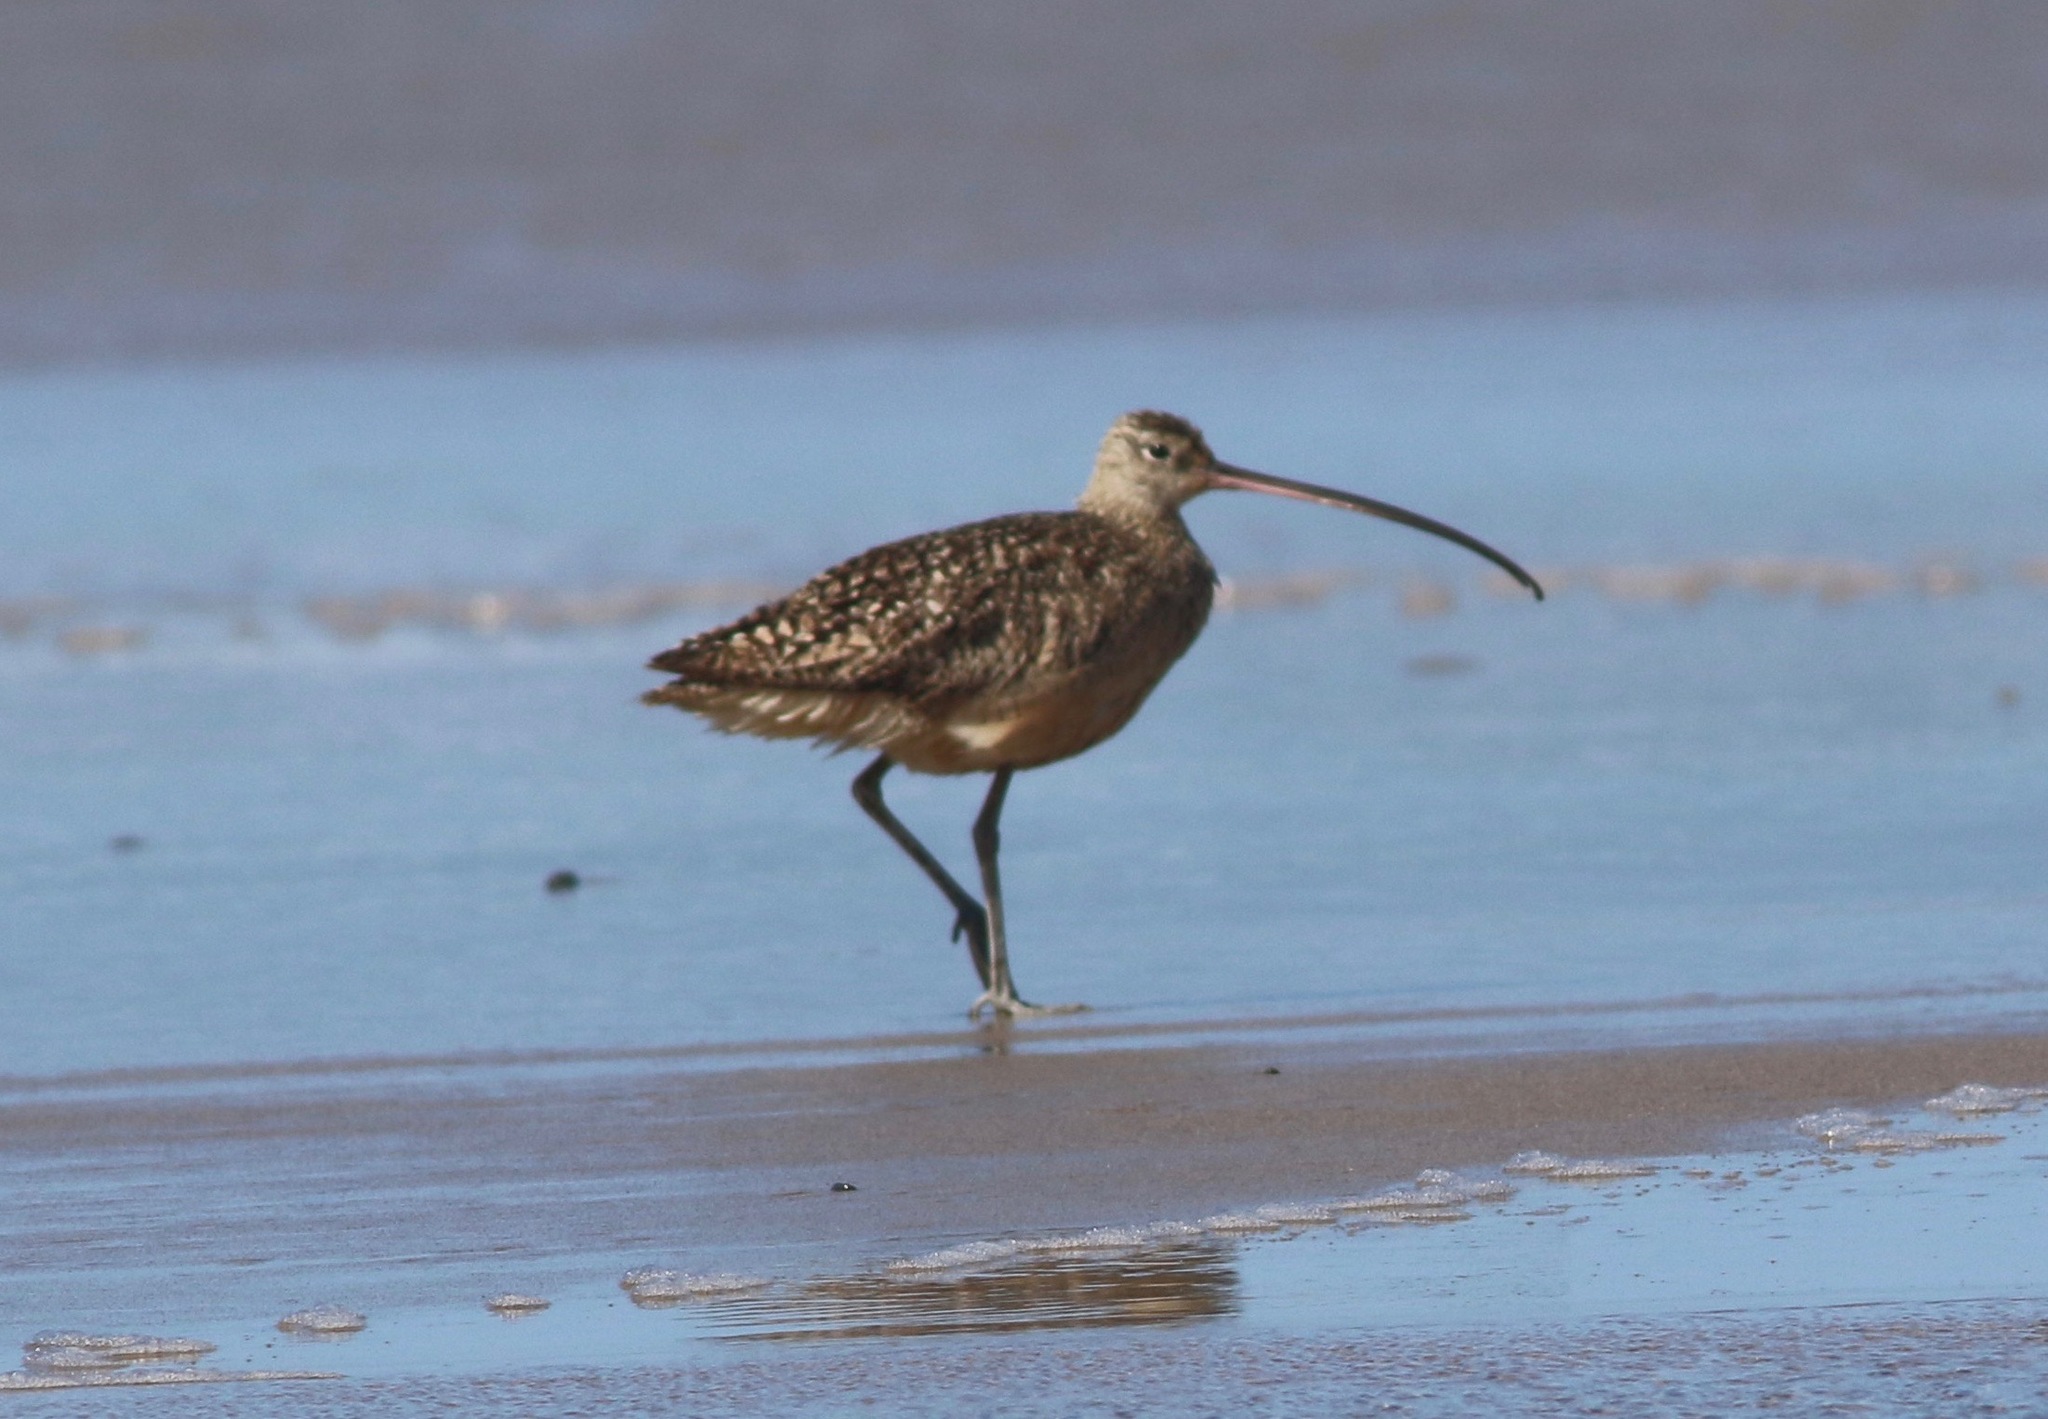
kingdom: Animalia
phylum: Chordata
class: Aves
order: Charadriiformes
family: Scolopacidae
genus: Numenius
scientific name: Numenius americanus
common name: Long-billed curlew
